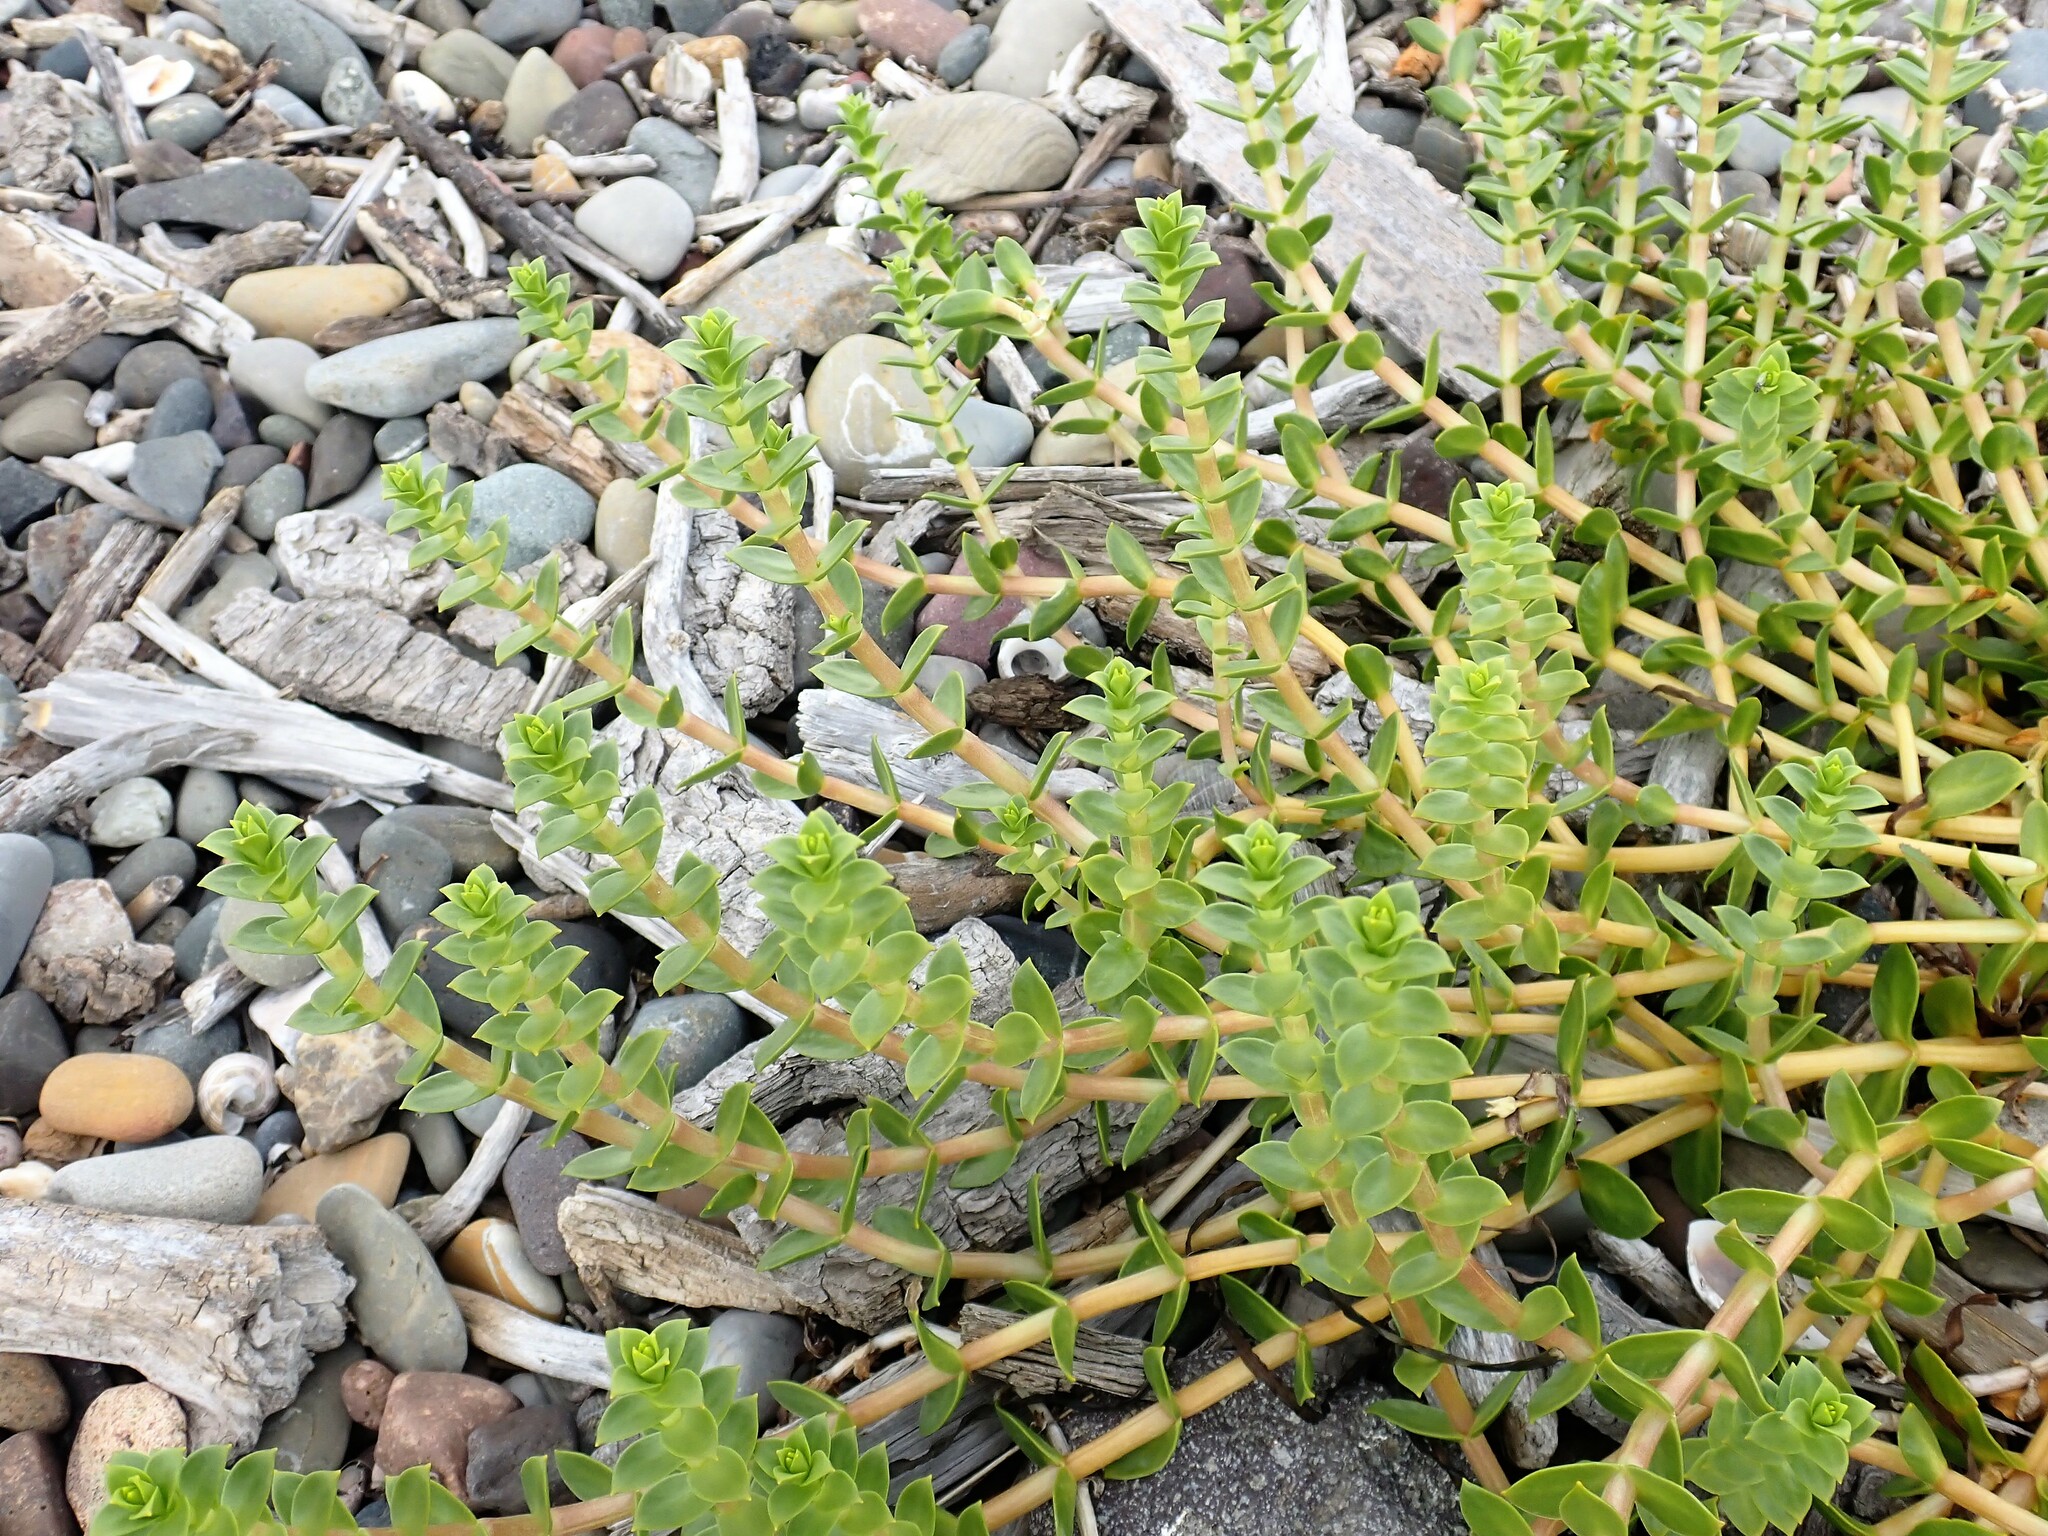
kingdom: Plantae
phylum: Tracheophyta
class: Magnoliopsida
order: Caryophyllales
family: Caryophyllaceae
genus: Honckenya
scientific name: Honckenya peploides
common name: Sea sandwort
